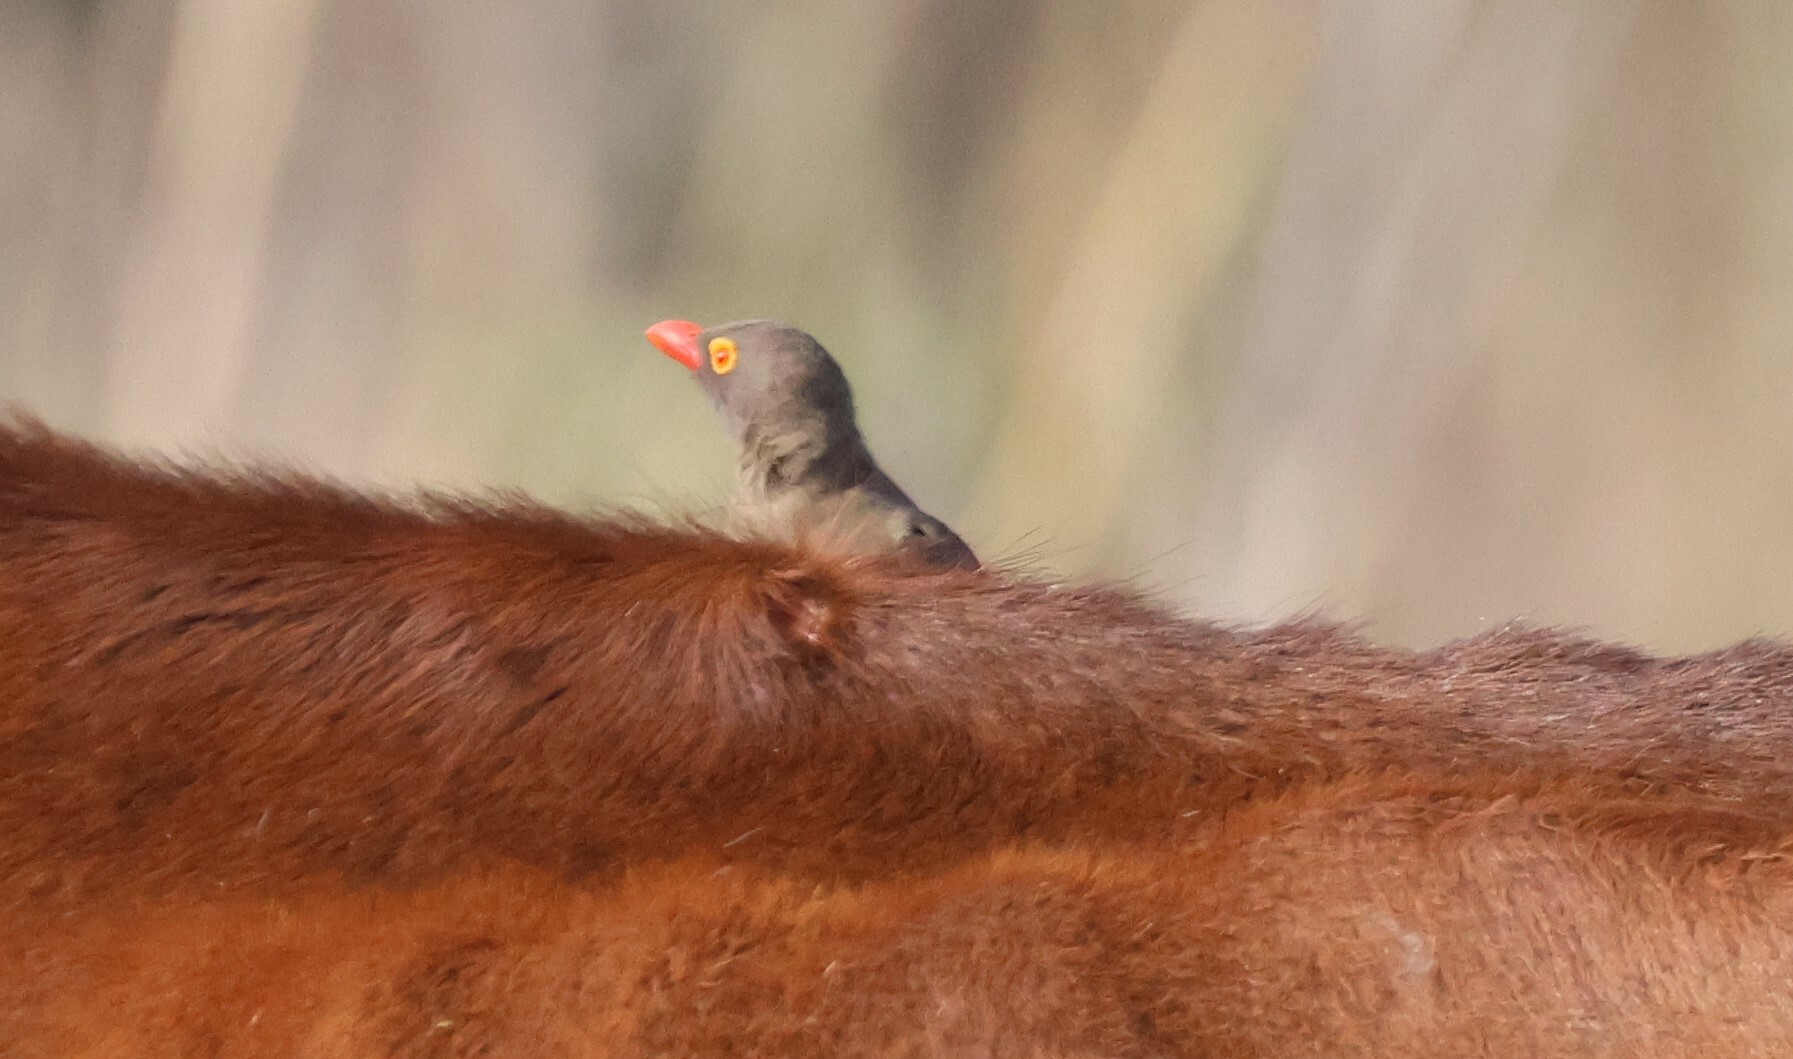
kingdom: Animalia
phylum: Chordata
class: Aves
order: Passeriformes
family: Buphagidae
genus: Buphagus
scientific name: Buphagus erythrorhynchus
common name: Red-billed oxpecker
